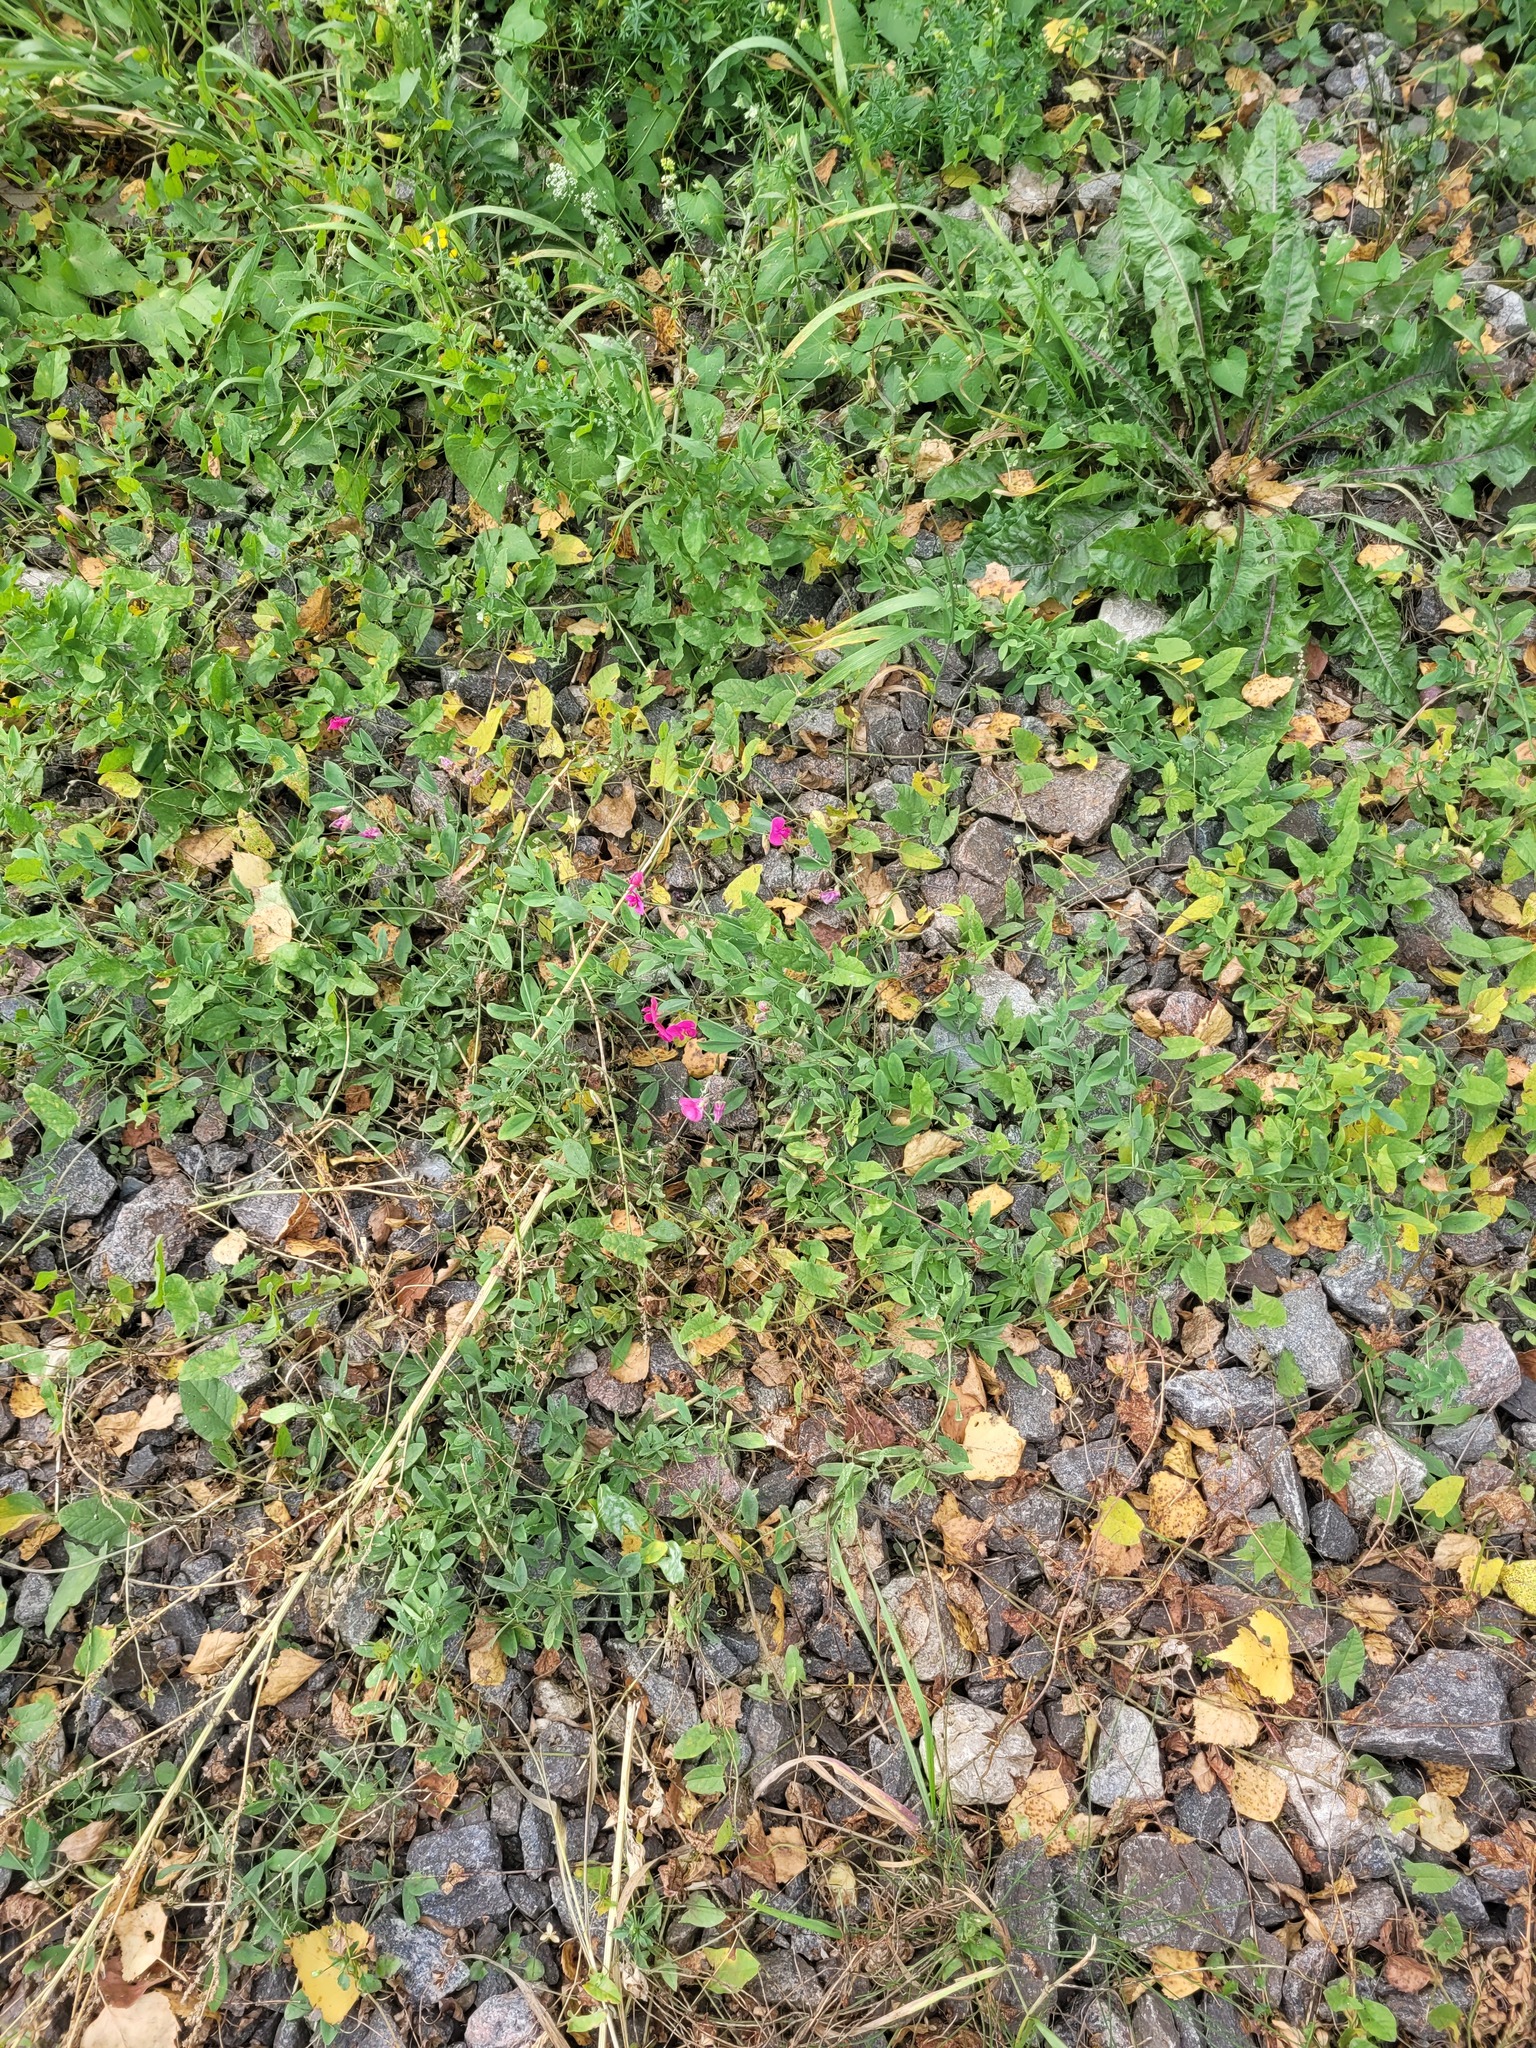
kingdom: Plantae
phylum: Tracheophyta
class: Magnoliopsida
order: Fabales
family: Fabaceae
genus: Lathyrus
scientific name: Lathyrus tuberosus
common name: Tuberous pea
